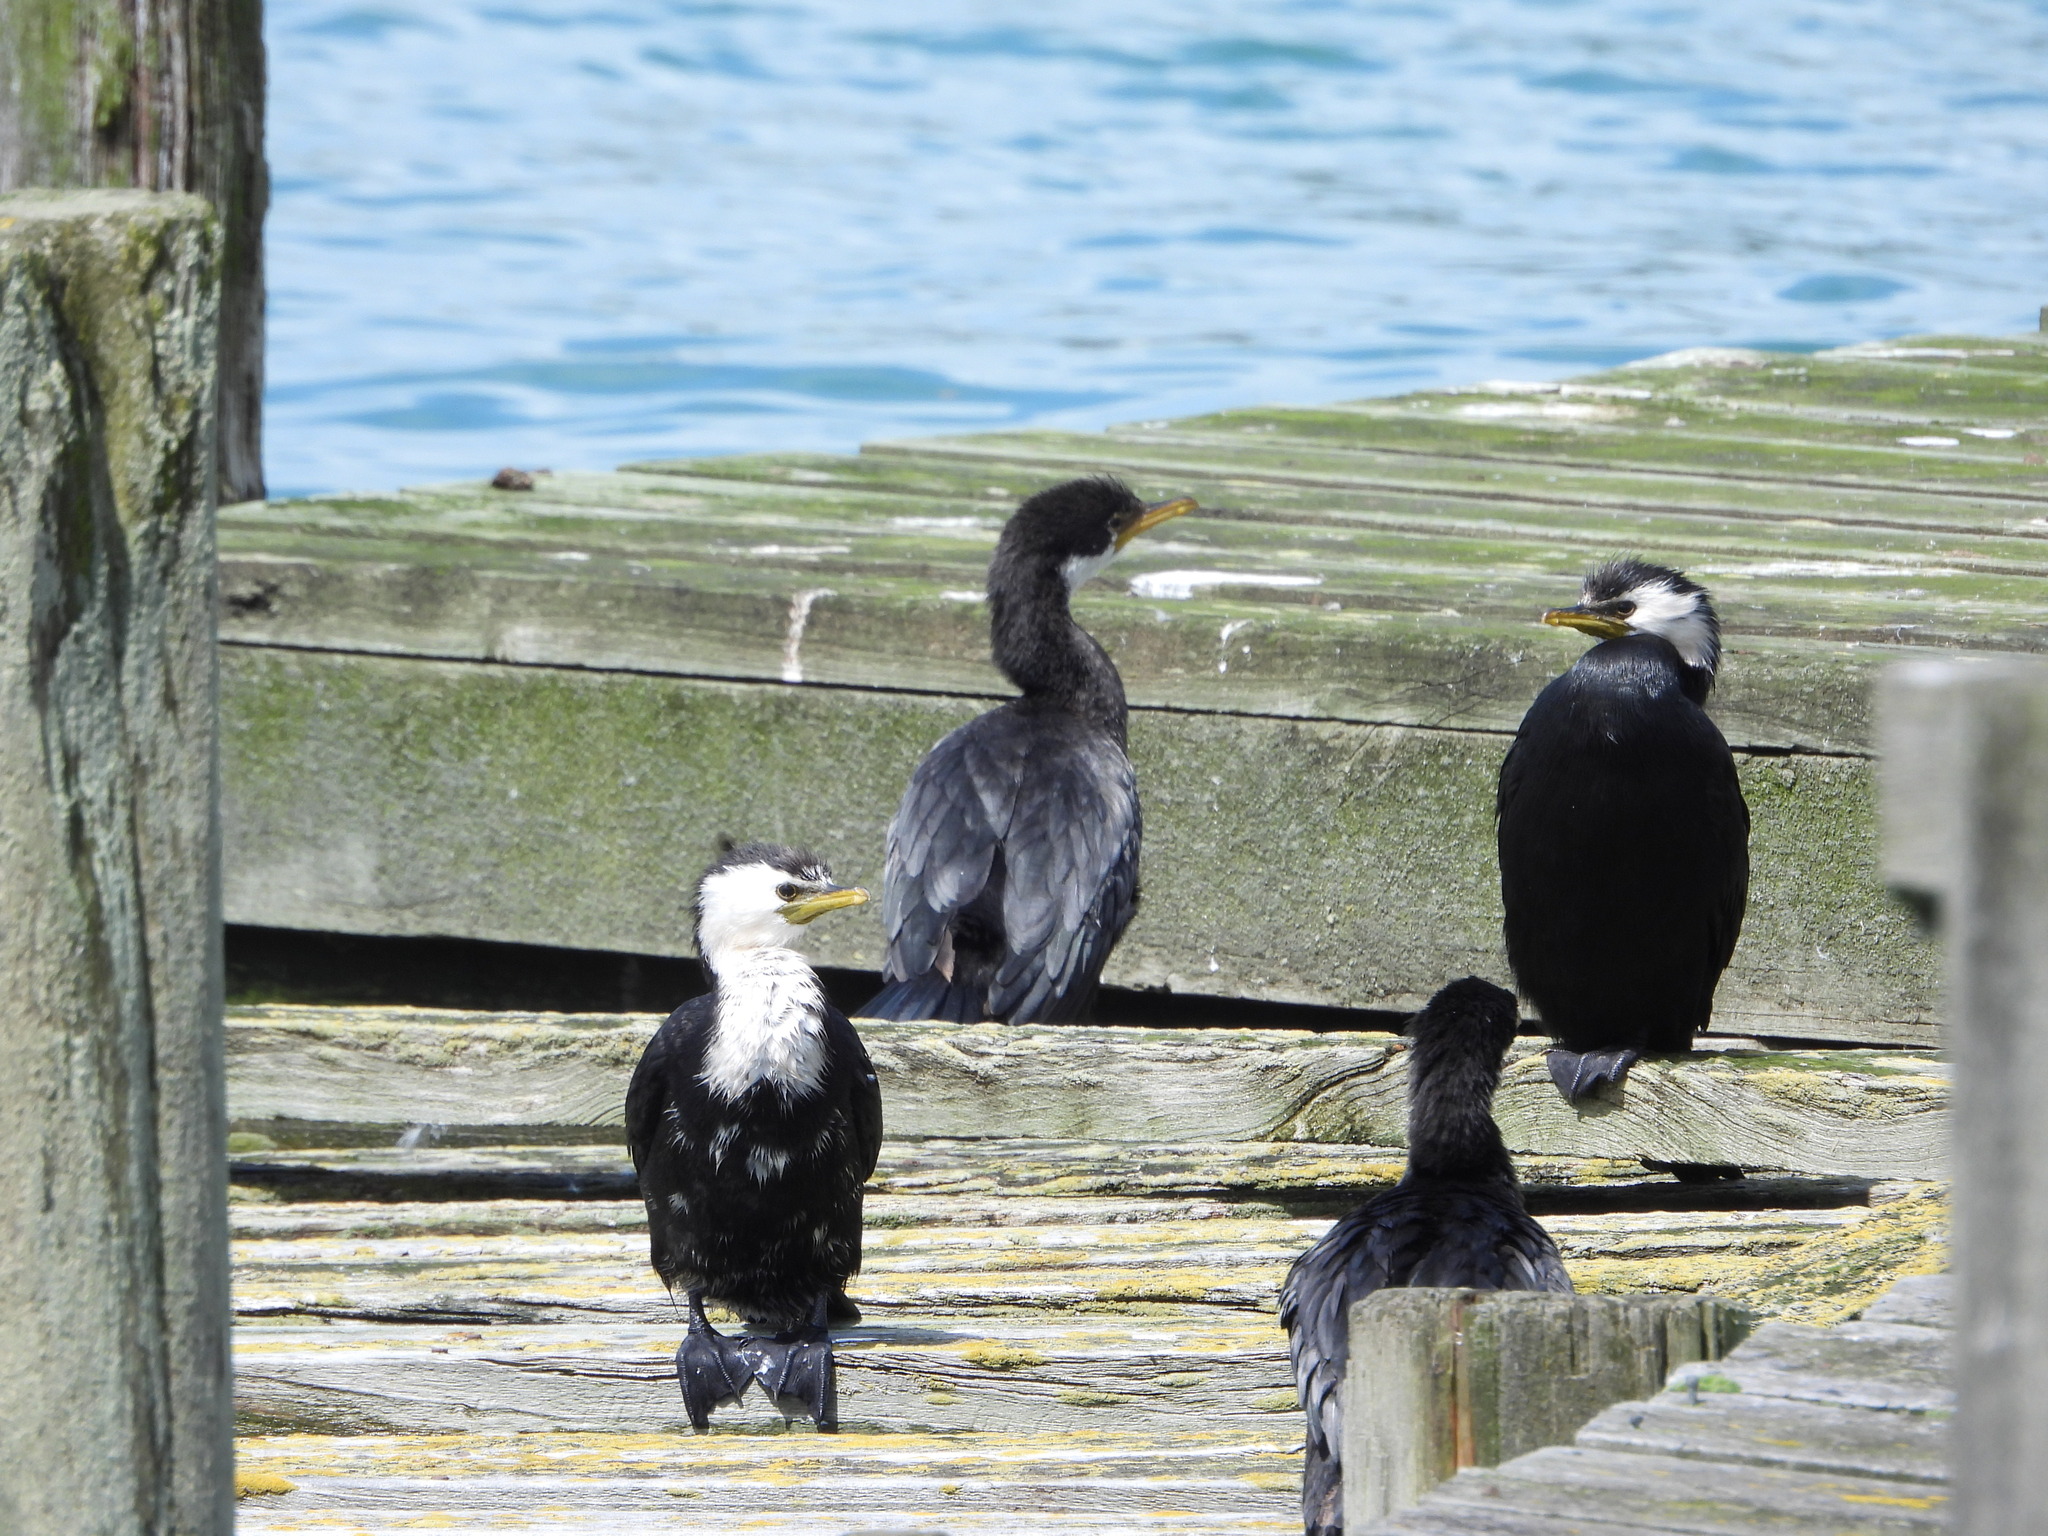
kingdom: Animalia
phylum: Chordata
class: Aves
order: Suliformes
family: Phalacrocoracidae
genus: Microcarbo
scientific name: Microcarbo melanoleucos
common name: Little pied cormorant
